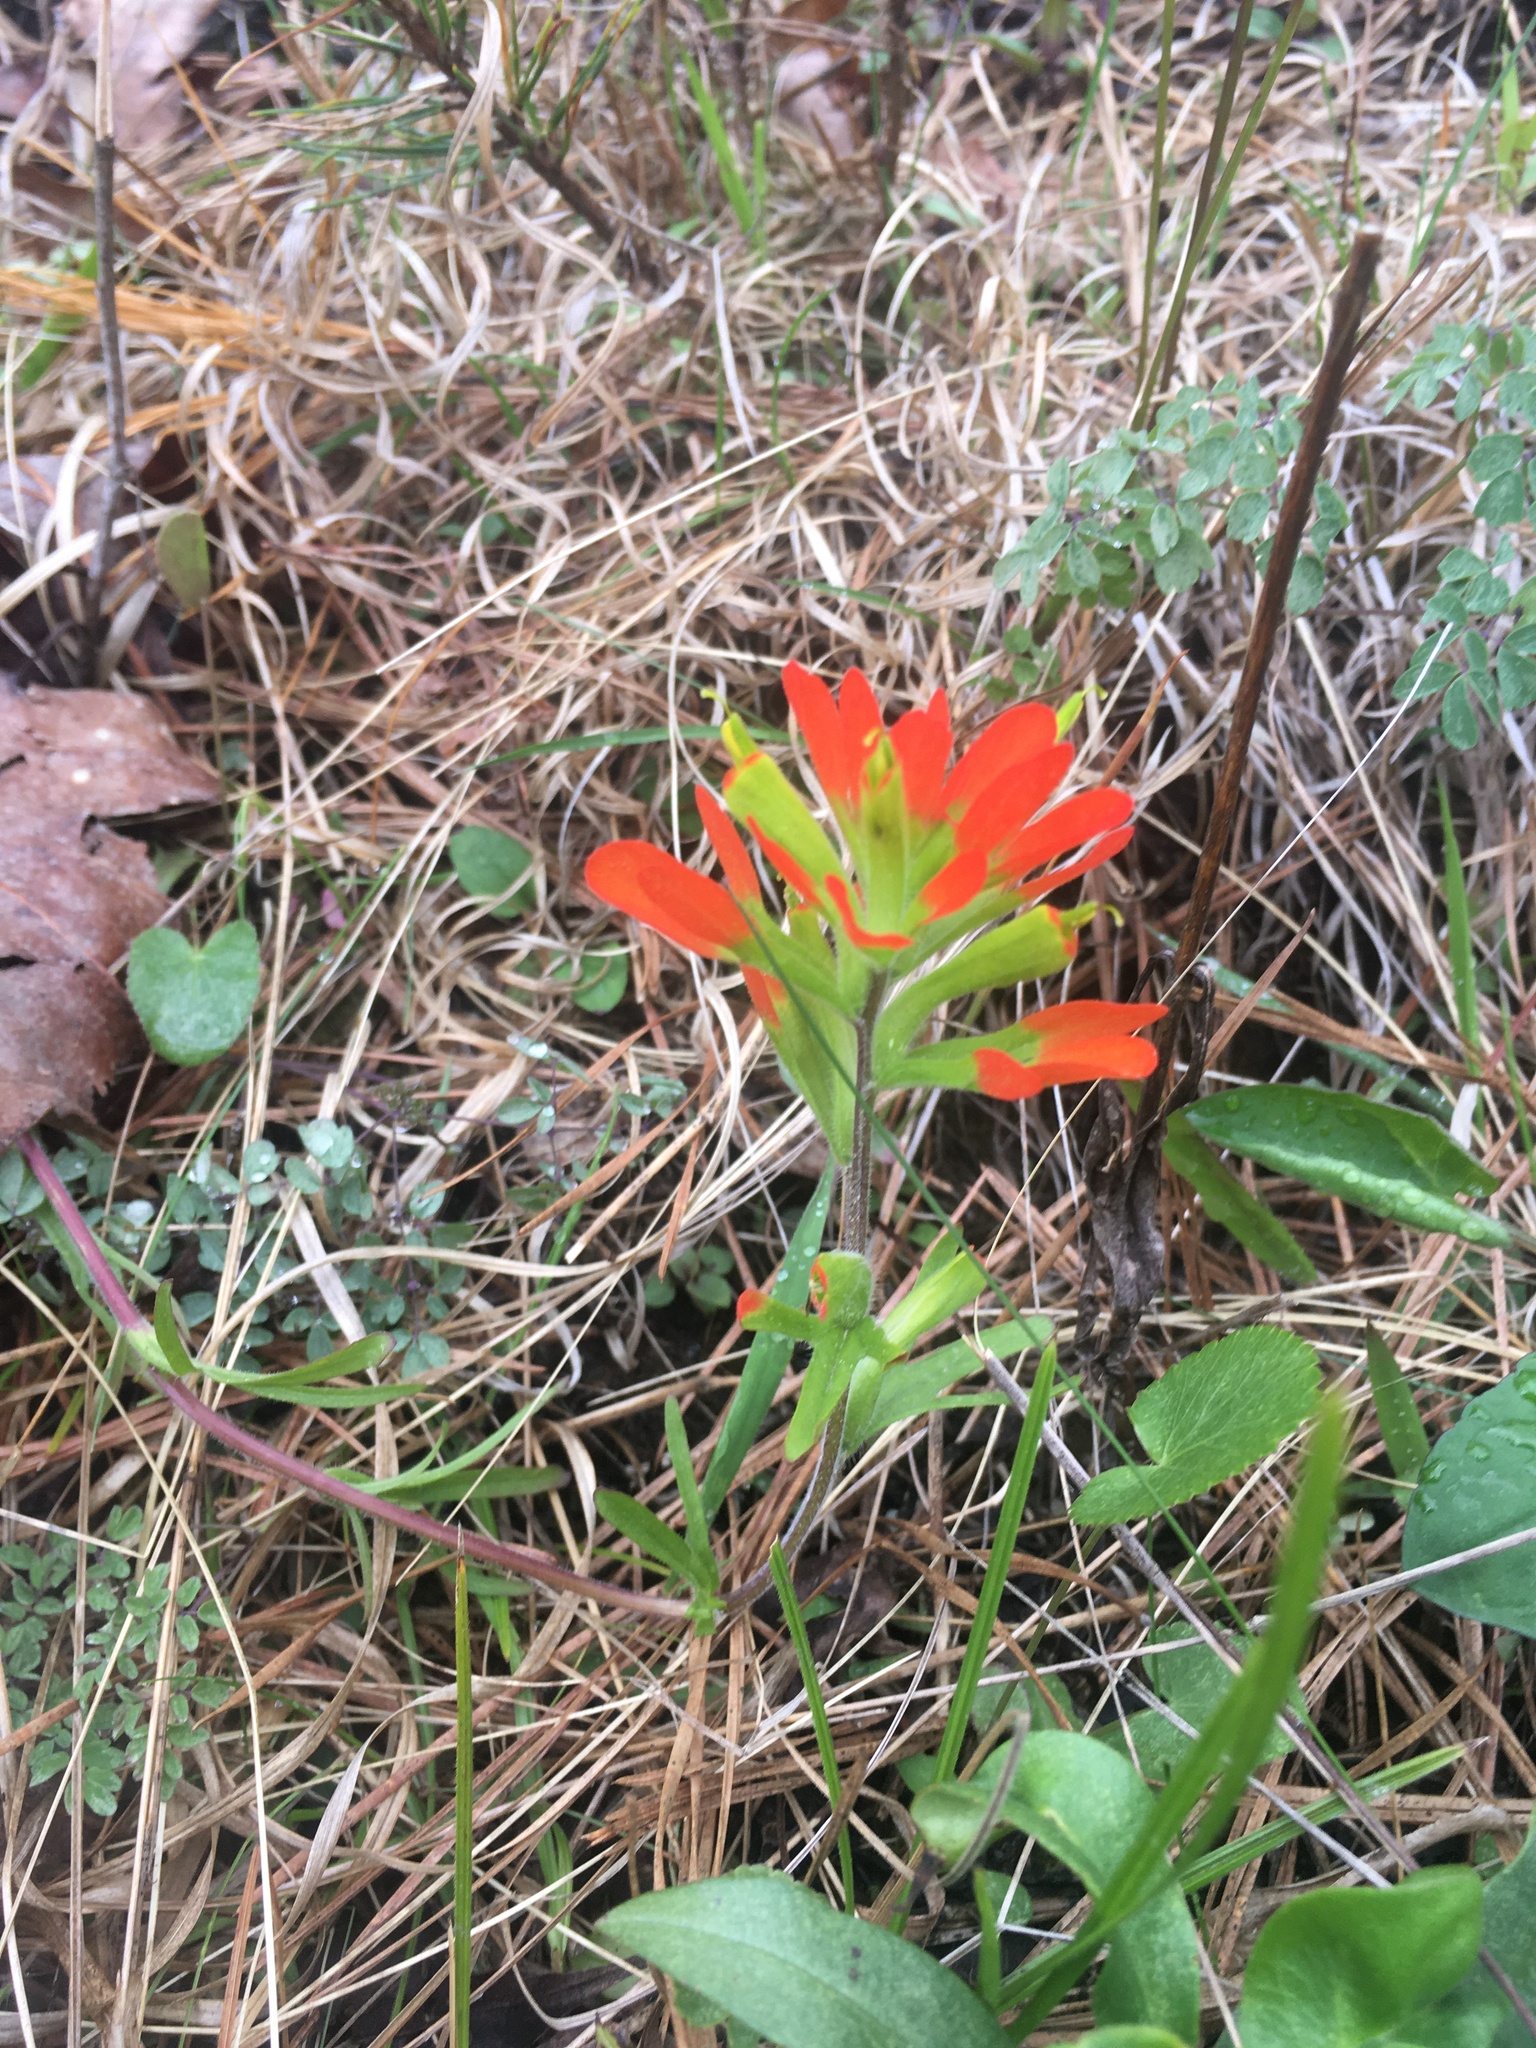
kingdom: Plantae
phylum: Tracheophyta
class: Magnoliopsida
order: Lamiales
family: Orobanchaceae
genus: Castilleja
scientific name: Castilleja coccinea
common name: Scarlet paintbrush
